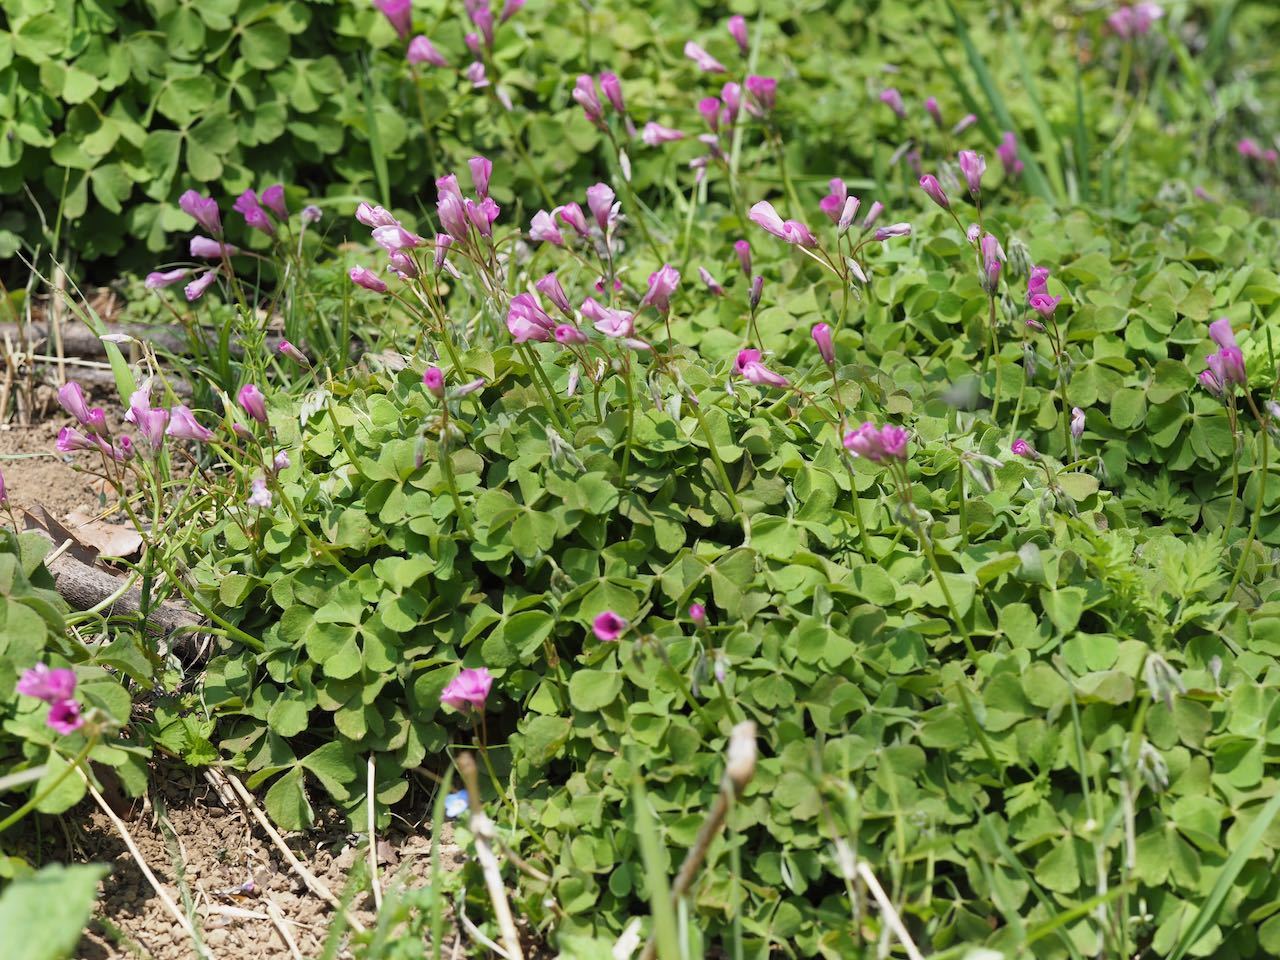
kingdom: Plantae
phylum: Tracheophyta
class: Magnoliopsida
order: Oxalidales
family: Oxalidaceae
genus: Oxalis
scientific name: Oxalis articulata
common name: Pink-sorrel
